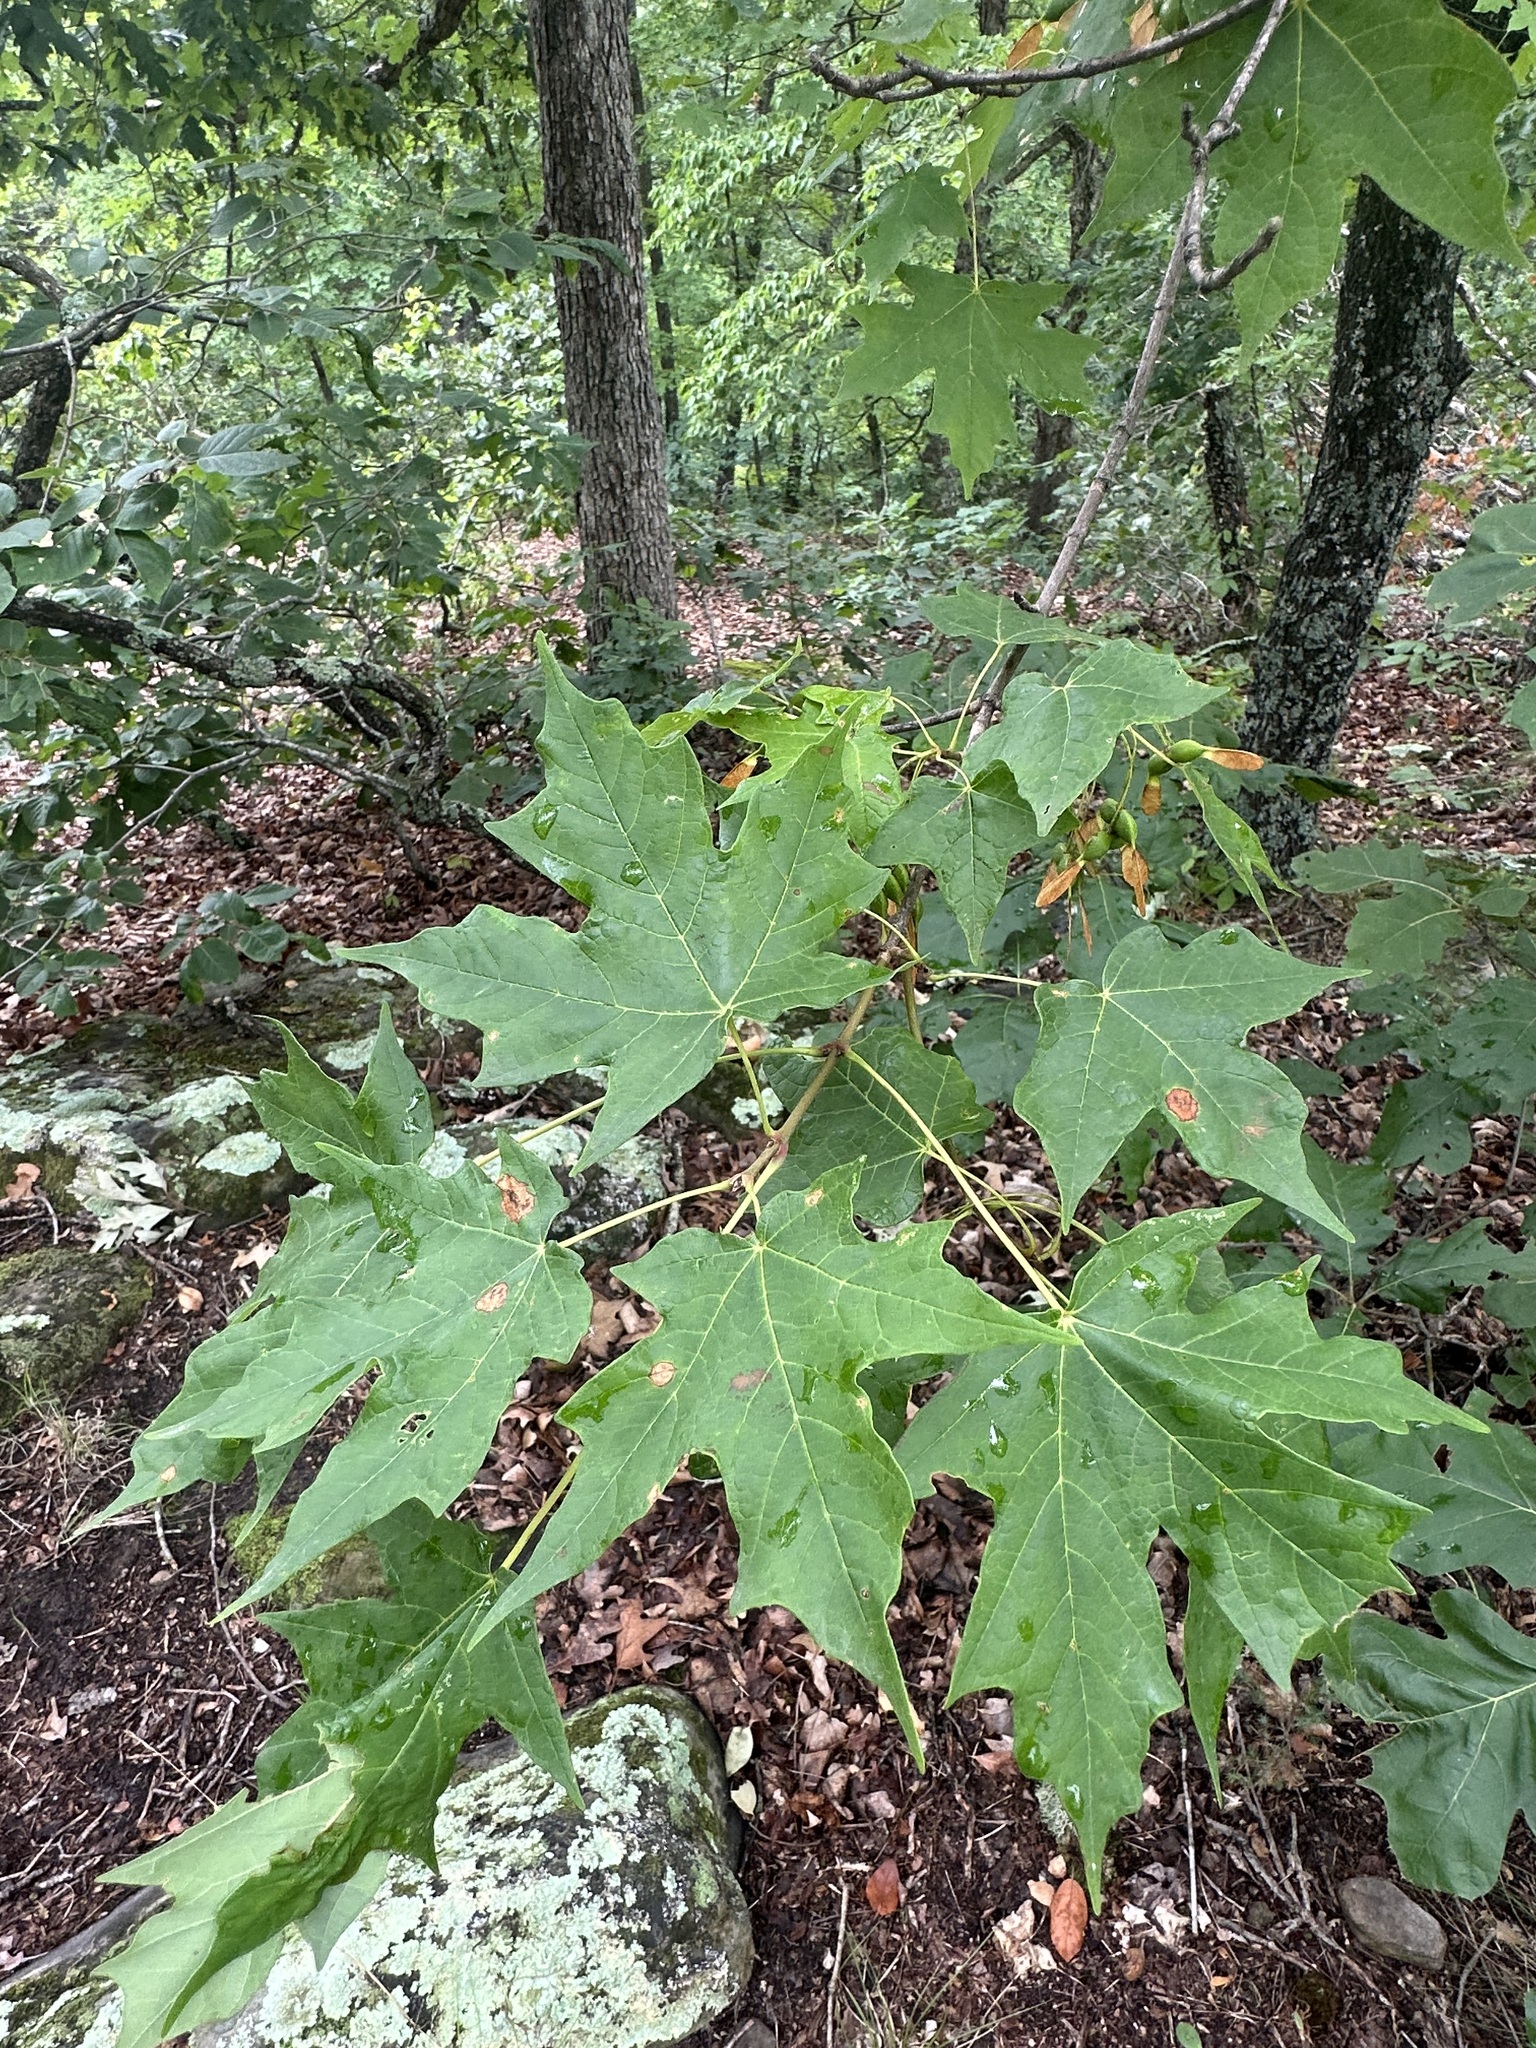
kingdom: Plantae
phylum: Tracheophyta
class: Magnoliopsida
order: Sapindales
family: Sapindaceae
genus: Acer
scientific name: Acer saccharum
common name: Sugar maple
